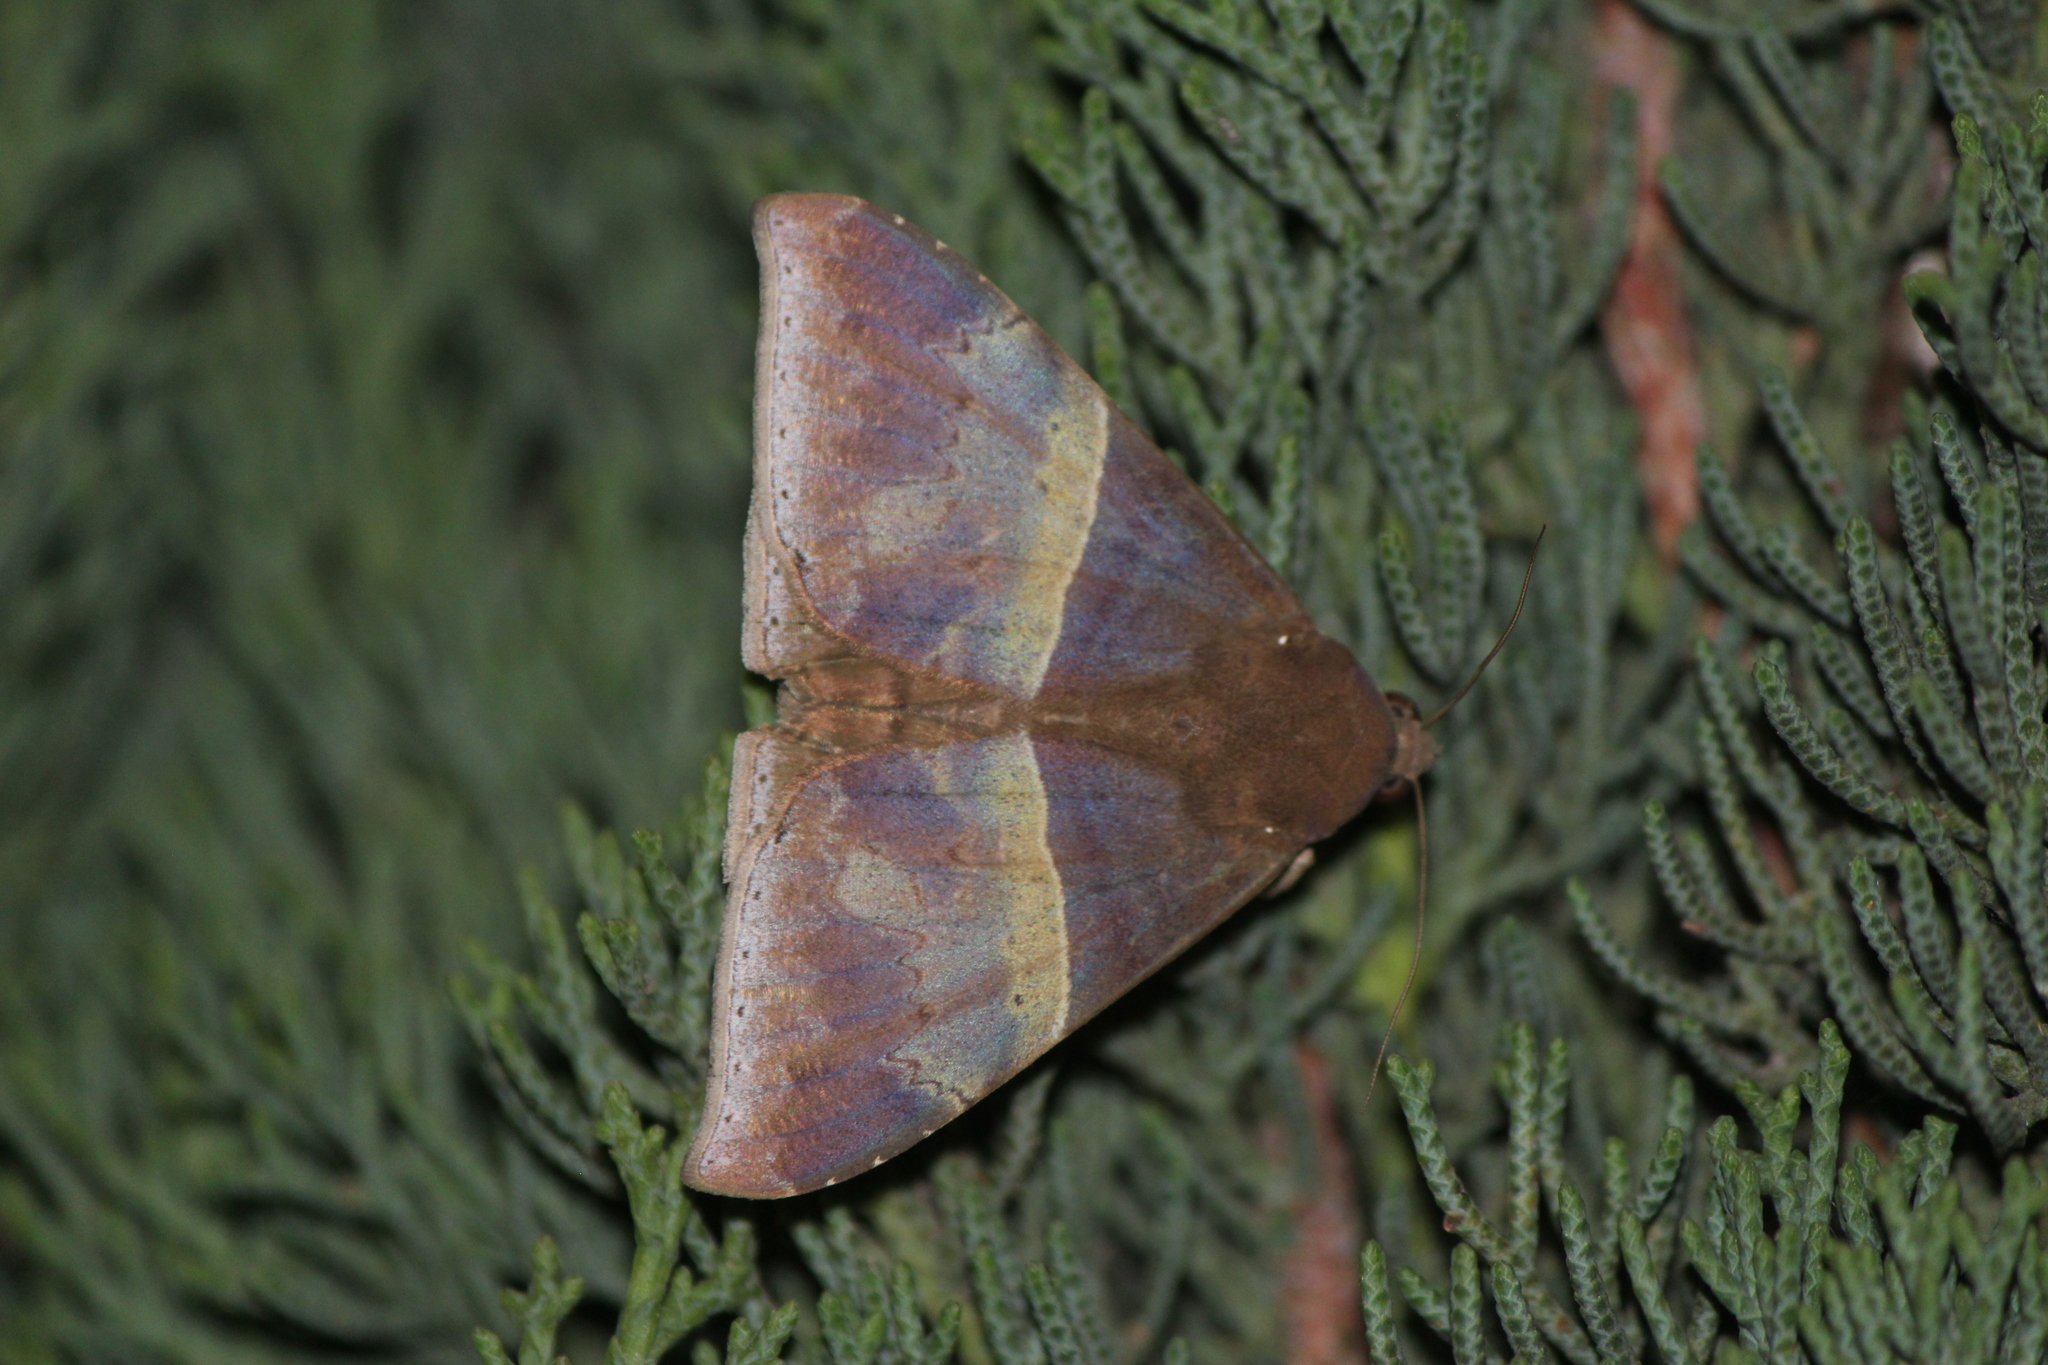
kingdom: Animalia
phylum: Arthropoda
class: Insecta
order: Lepidoptera
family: Erebidae
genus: Ophisma
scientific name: Ophisma tropicalis
